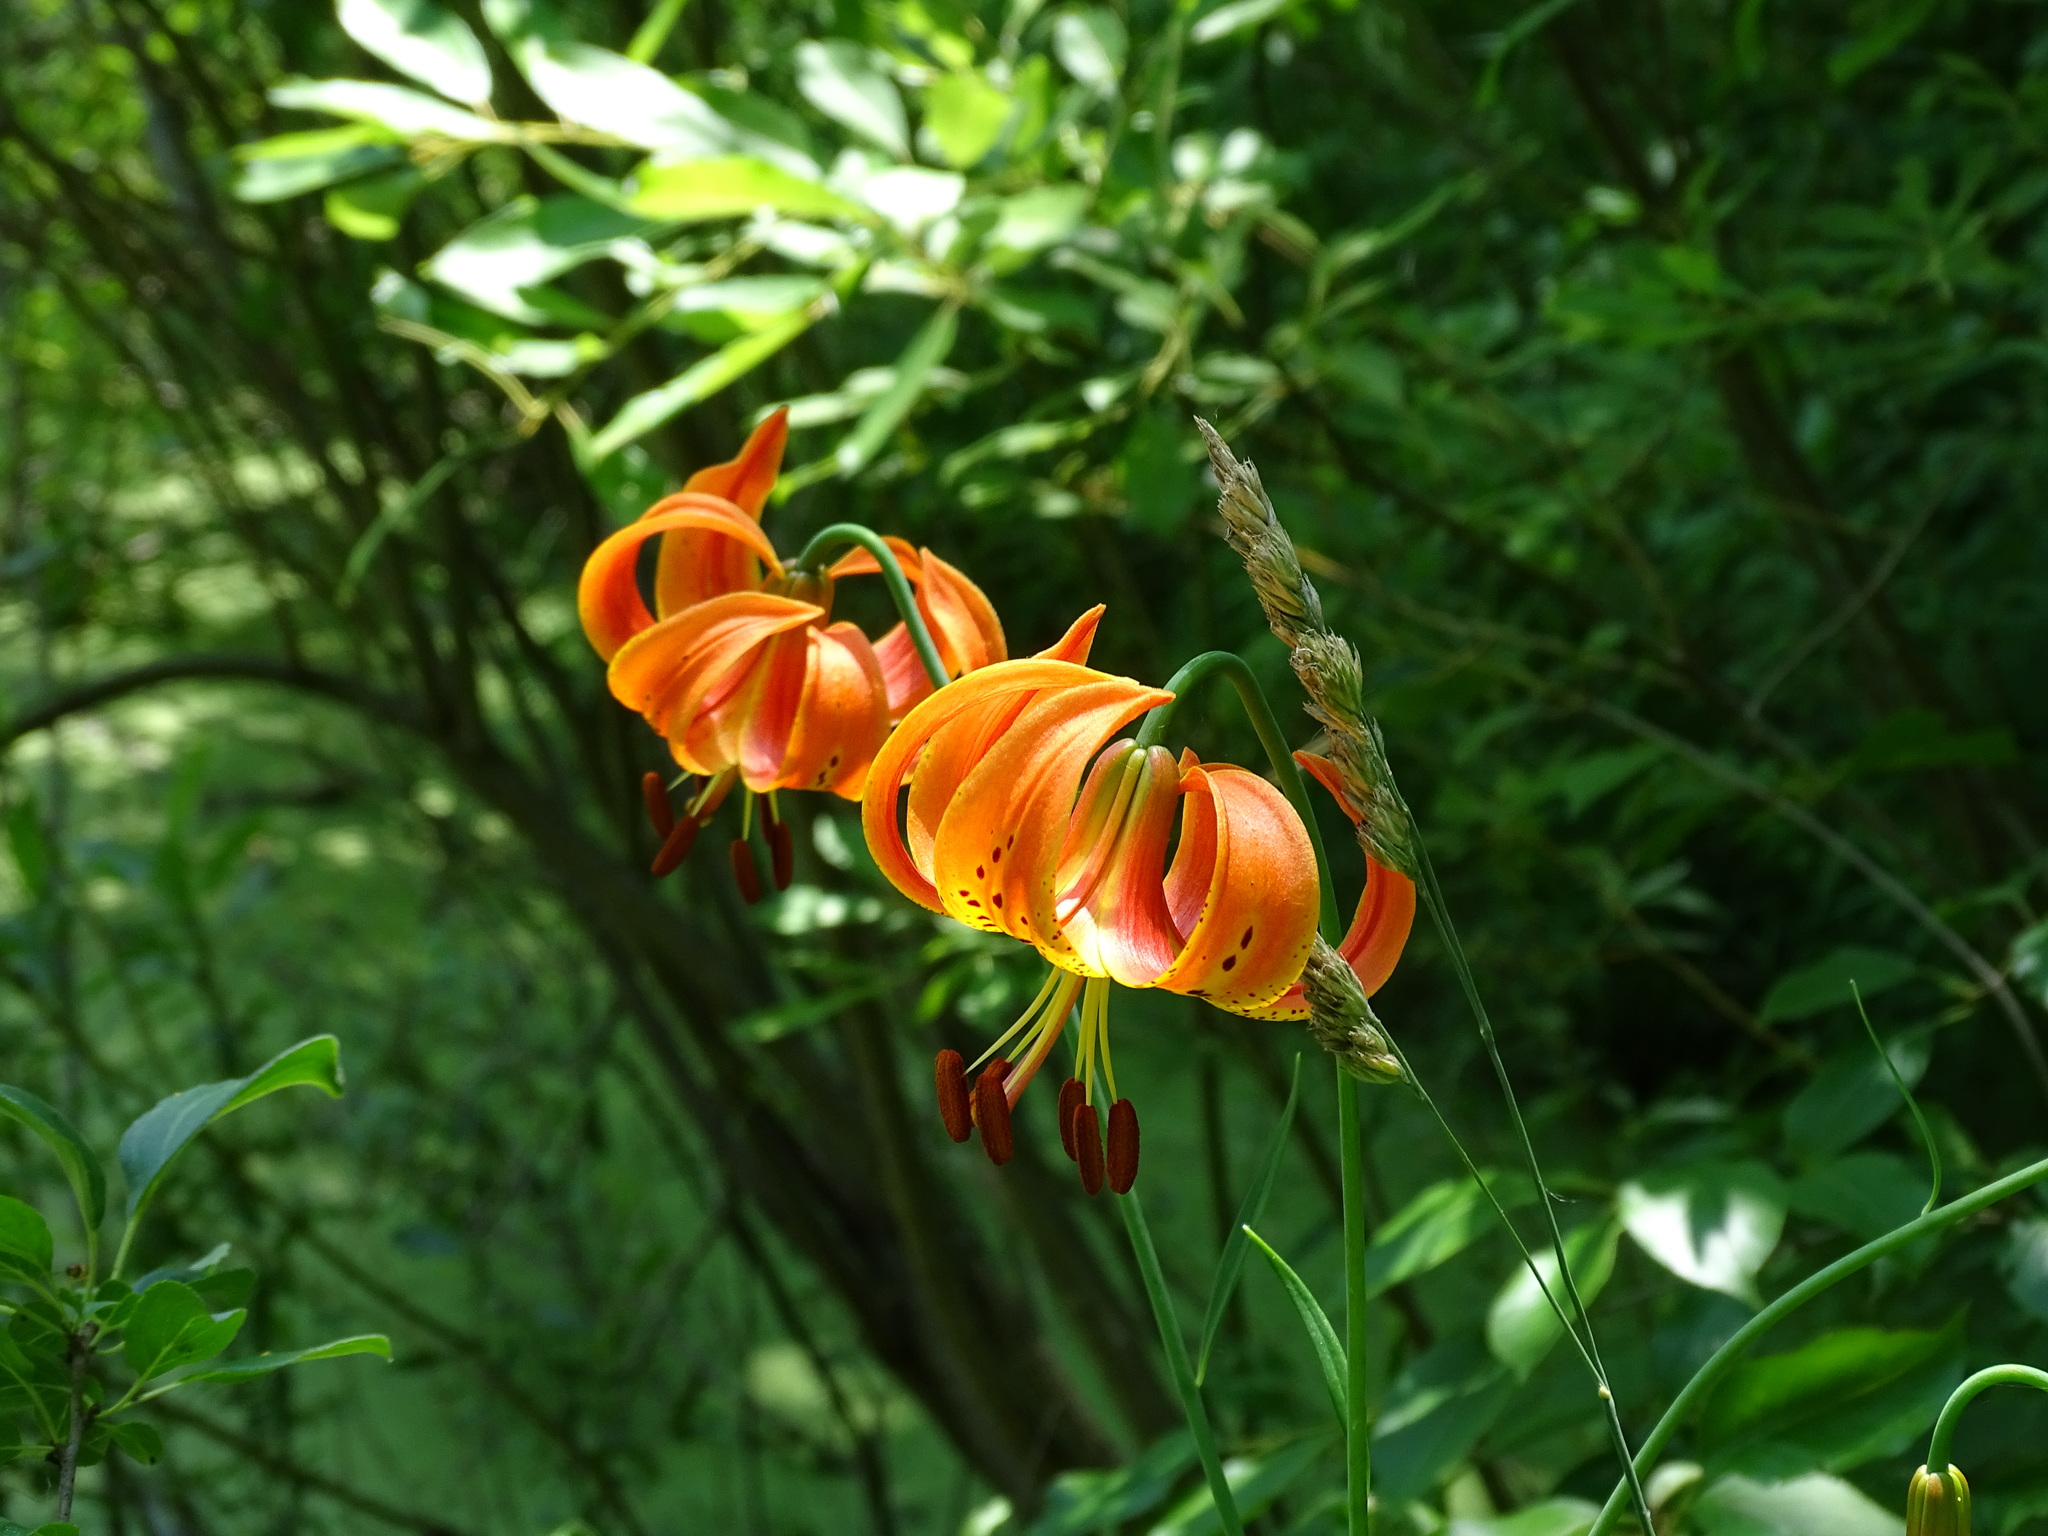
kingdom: Plantae
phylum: Tracheophyta
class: Liliopsida
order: Liliales
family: Liliaceae
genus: Lilium
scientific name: Lilium michiganense
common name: Michigan lily
